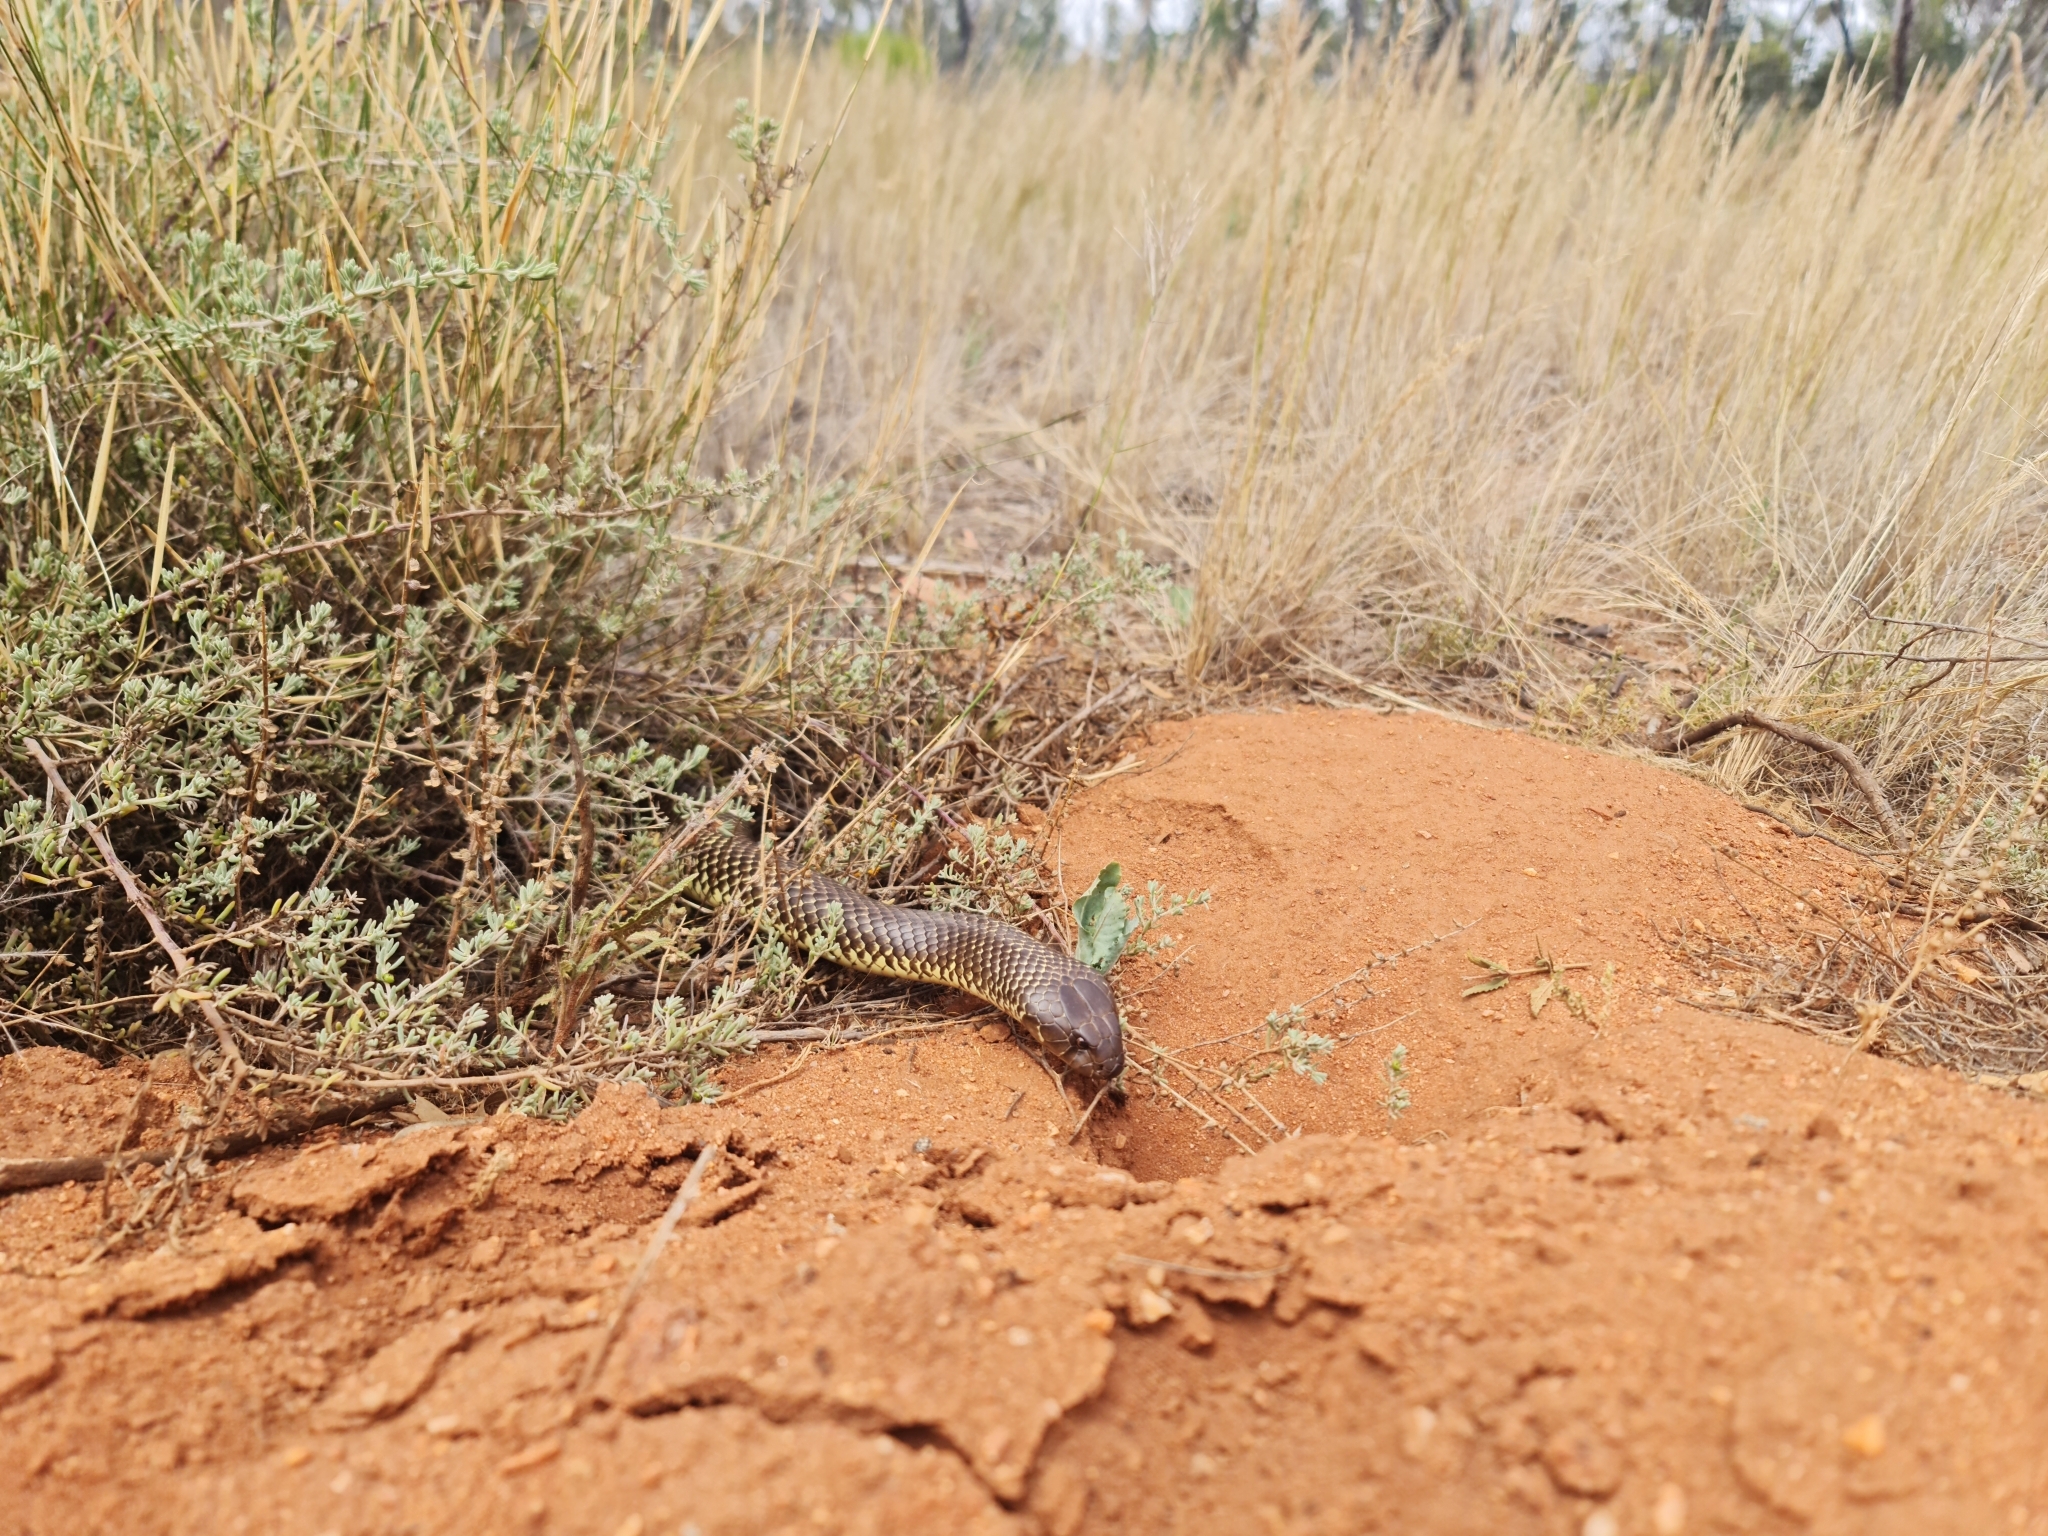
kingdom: Animalia
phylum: Chordata
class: Squamata
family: Elapidae
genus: Pseudechis
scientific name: Pseudechis australis
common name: King brown snake
